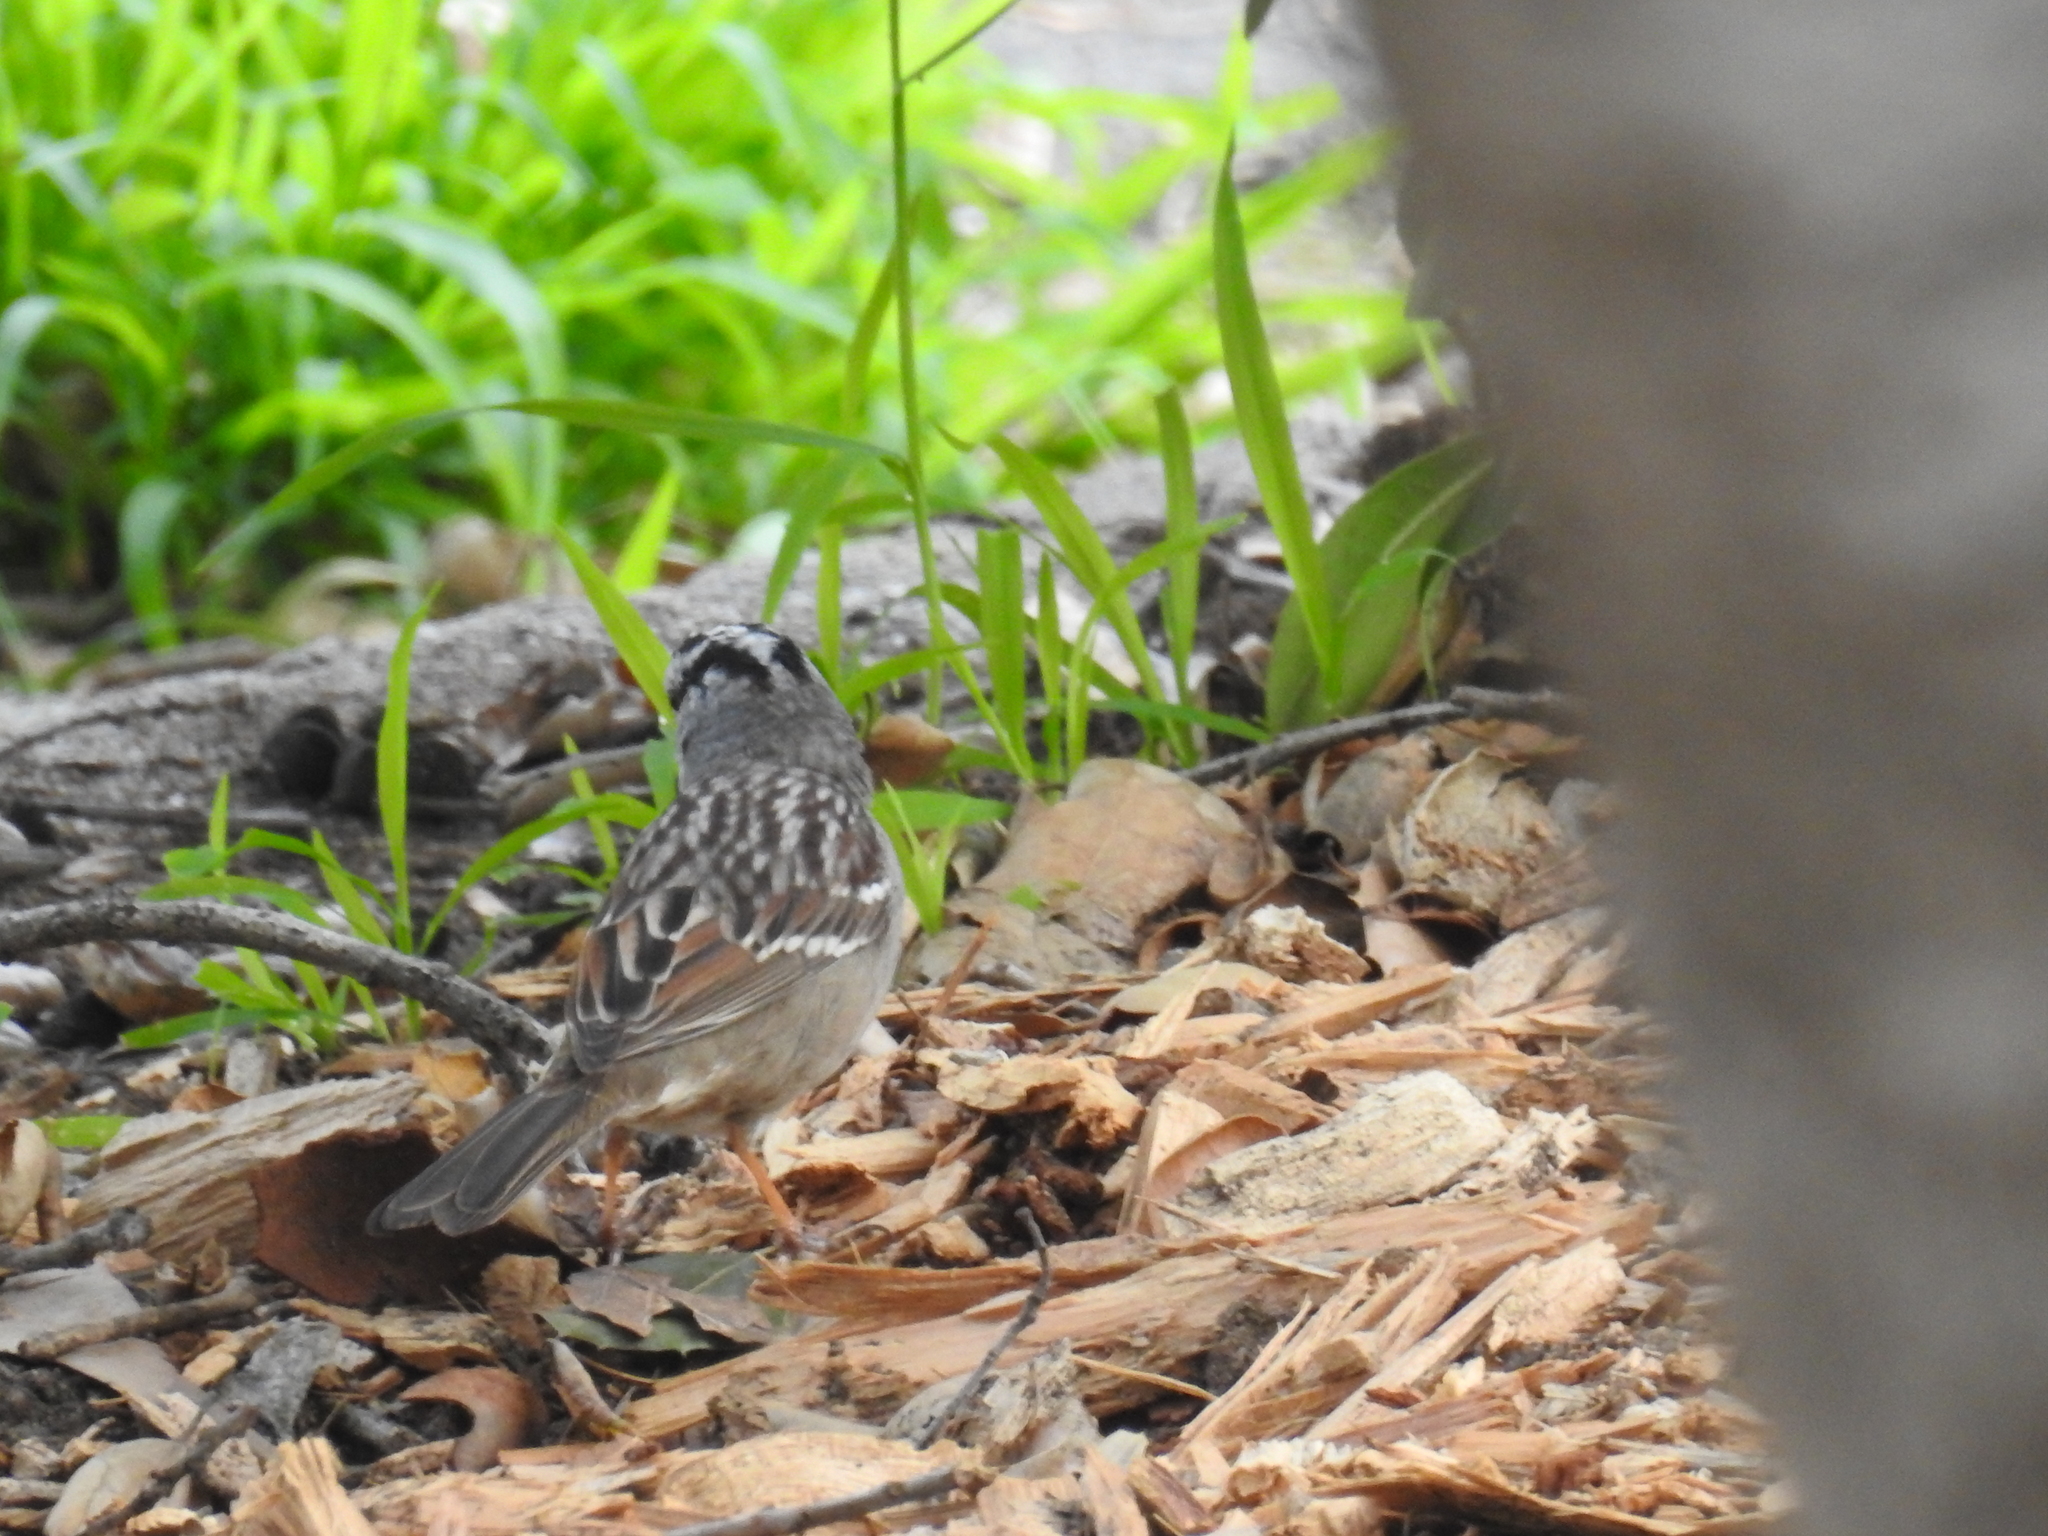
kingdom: Animalia
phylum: Chordata
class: Aves
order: Passeriformes
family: Passerellidae
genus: Zonotrichia
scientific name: Zonotrichia leucophrys
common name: White-crowned sparrow
